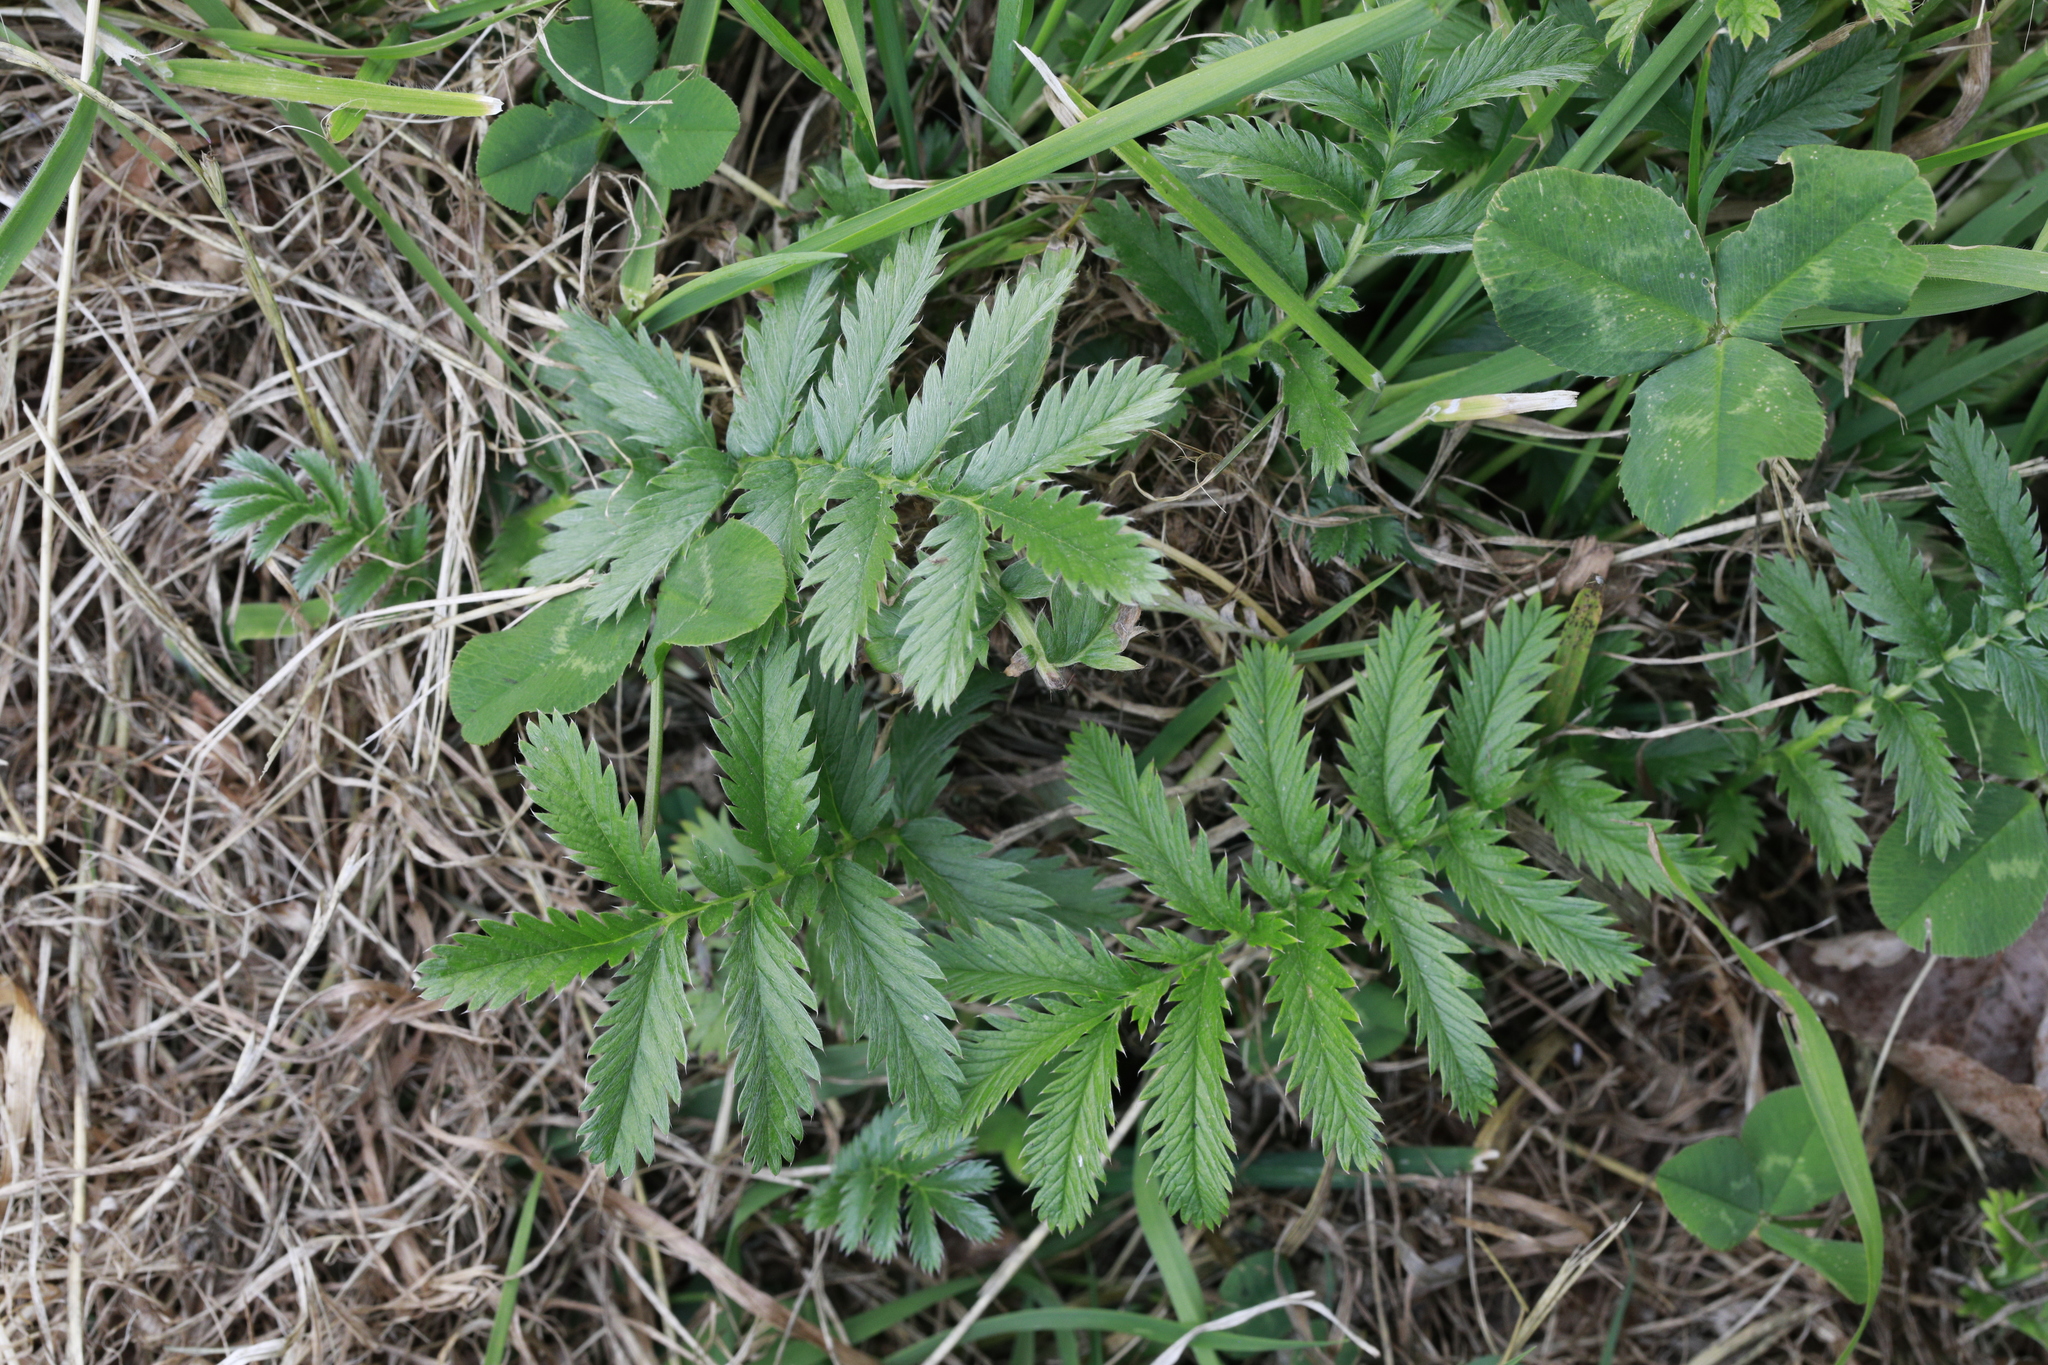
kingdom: Plantae
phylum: Tracheophyta
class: Magnoliopsida
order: Rosales
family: Rosaceae
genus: Argentina
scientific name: Argentina anserina
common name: Common silverweed
